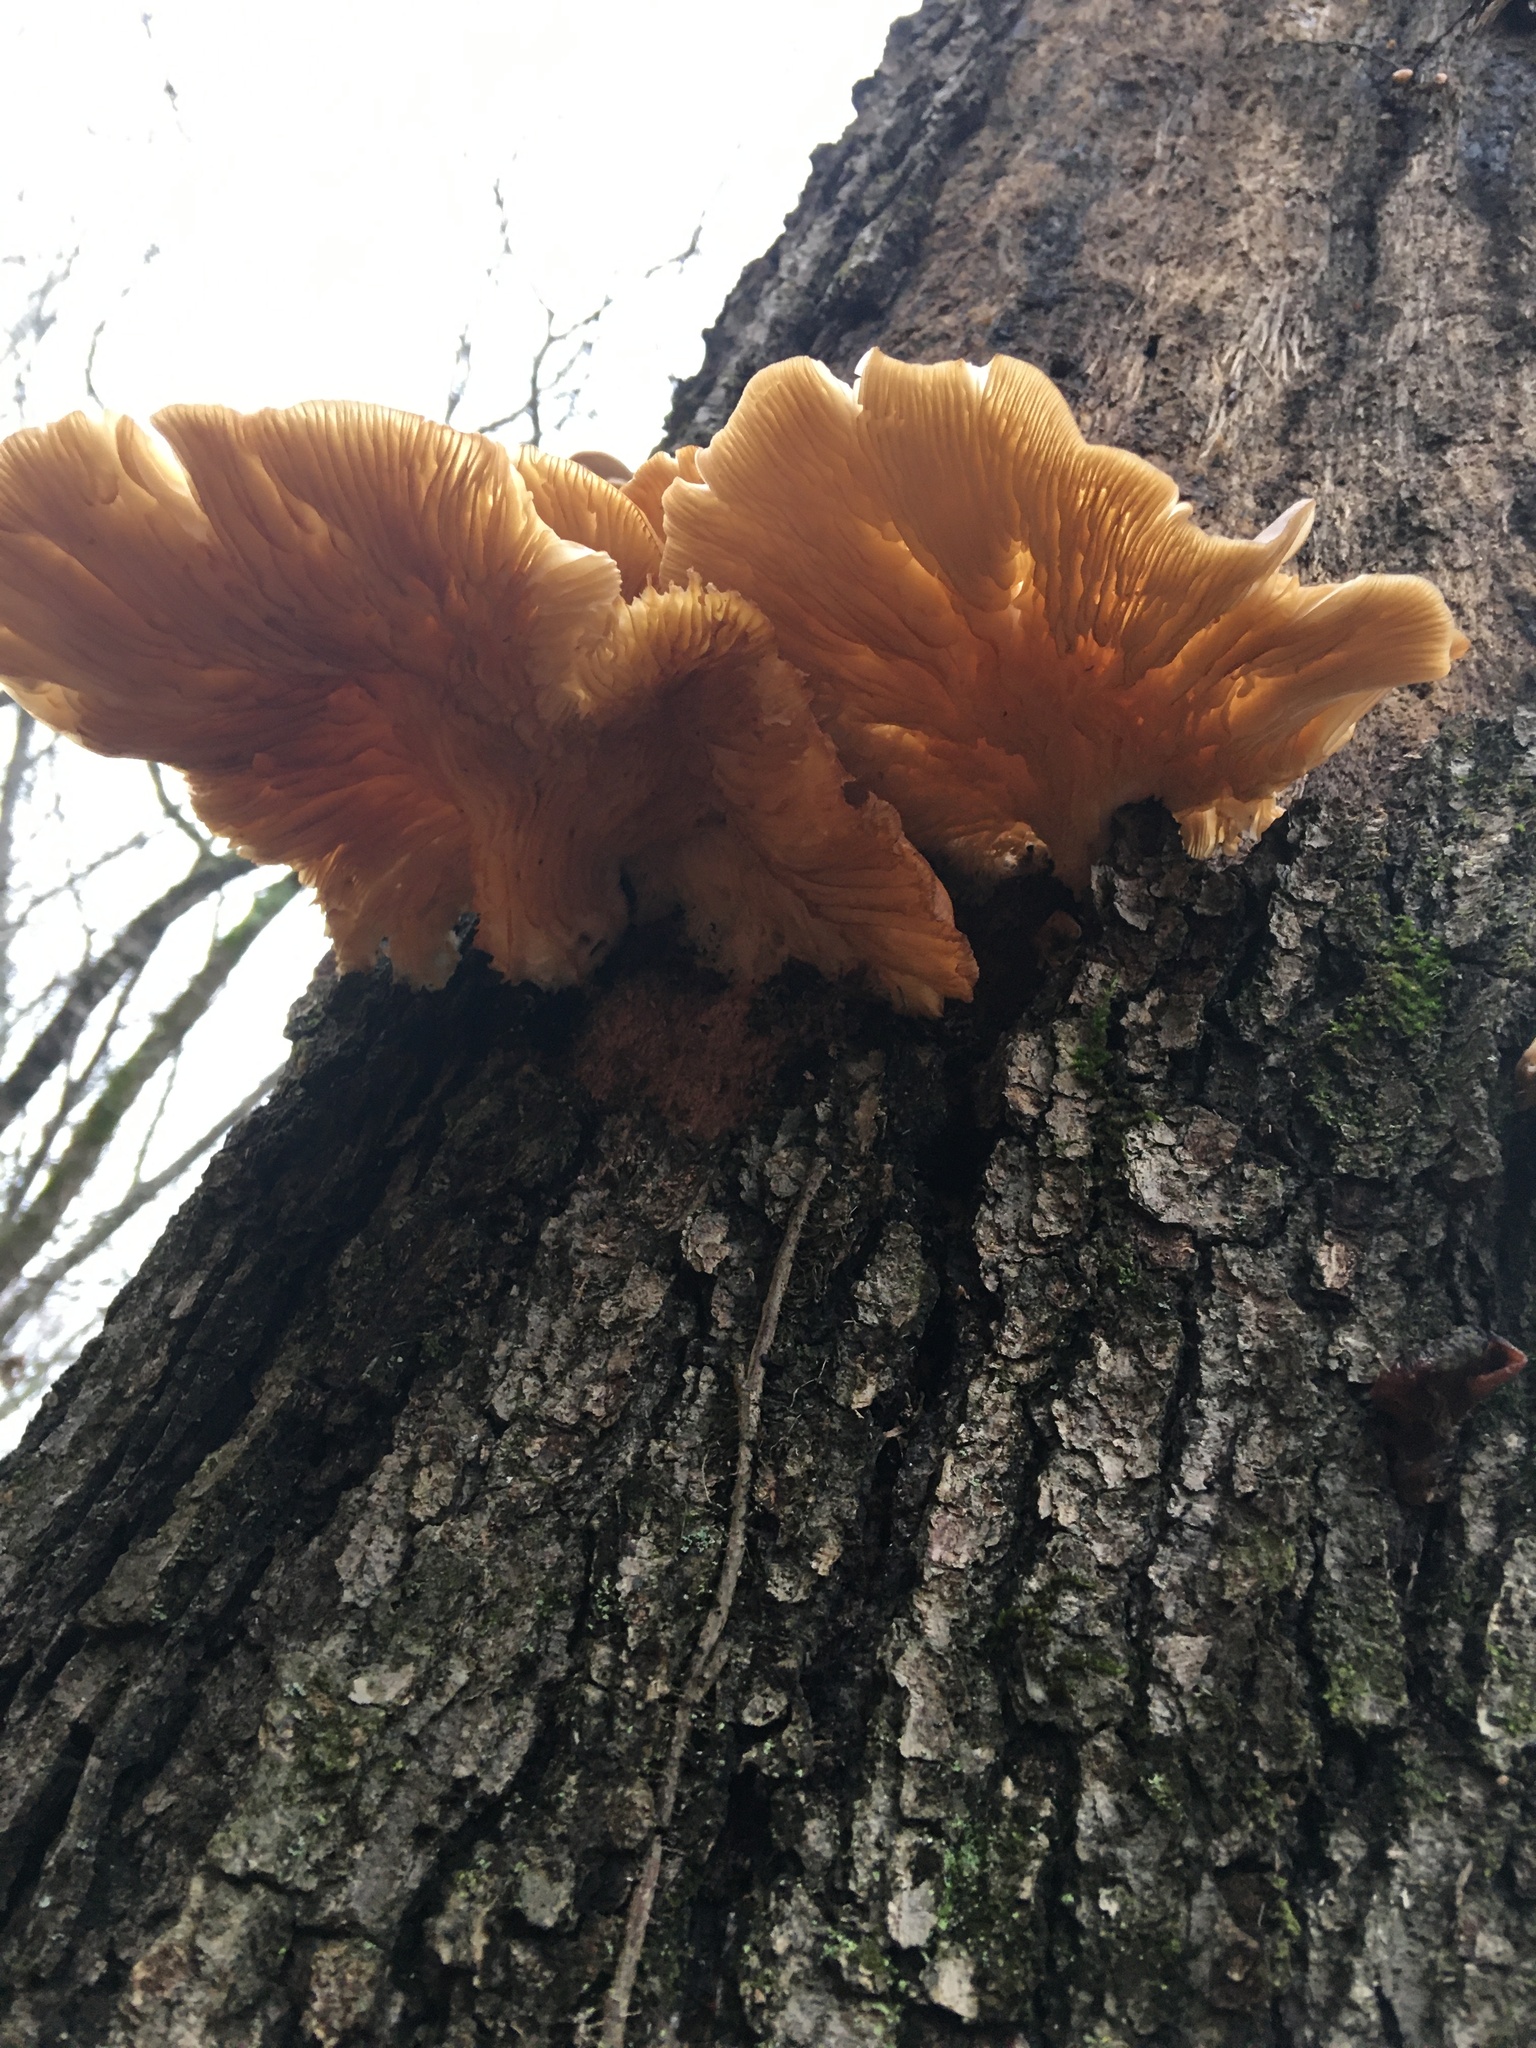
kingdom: Fungi
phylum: Basidiomycota
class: Agaricomycetes
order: Agaricales
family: Pleurotaceae
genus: Pleurotus
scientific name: Pleurotus ostreatus
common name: Oyster mushroom
